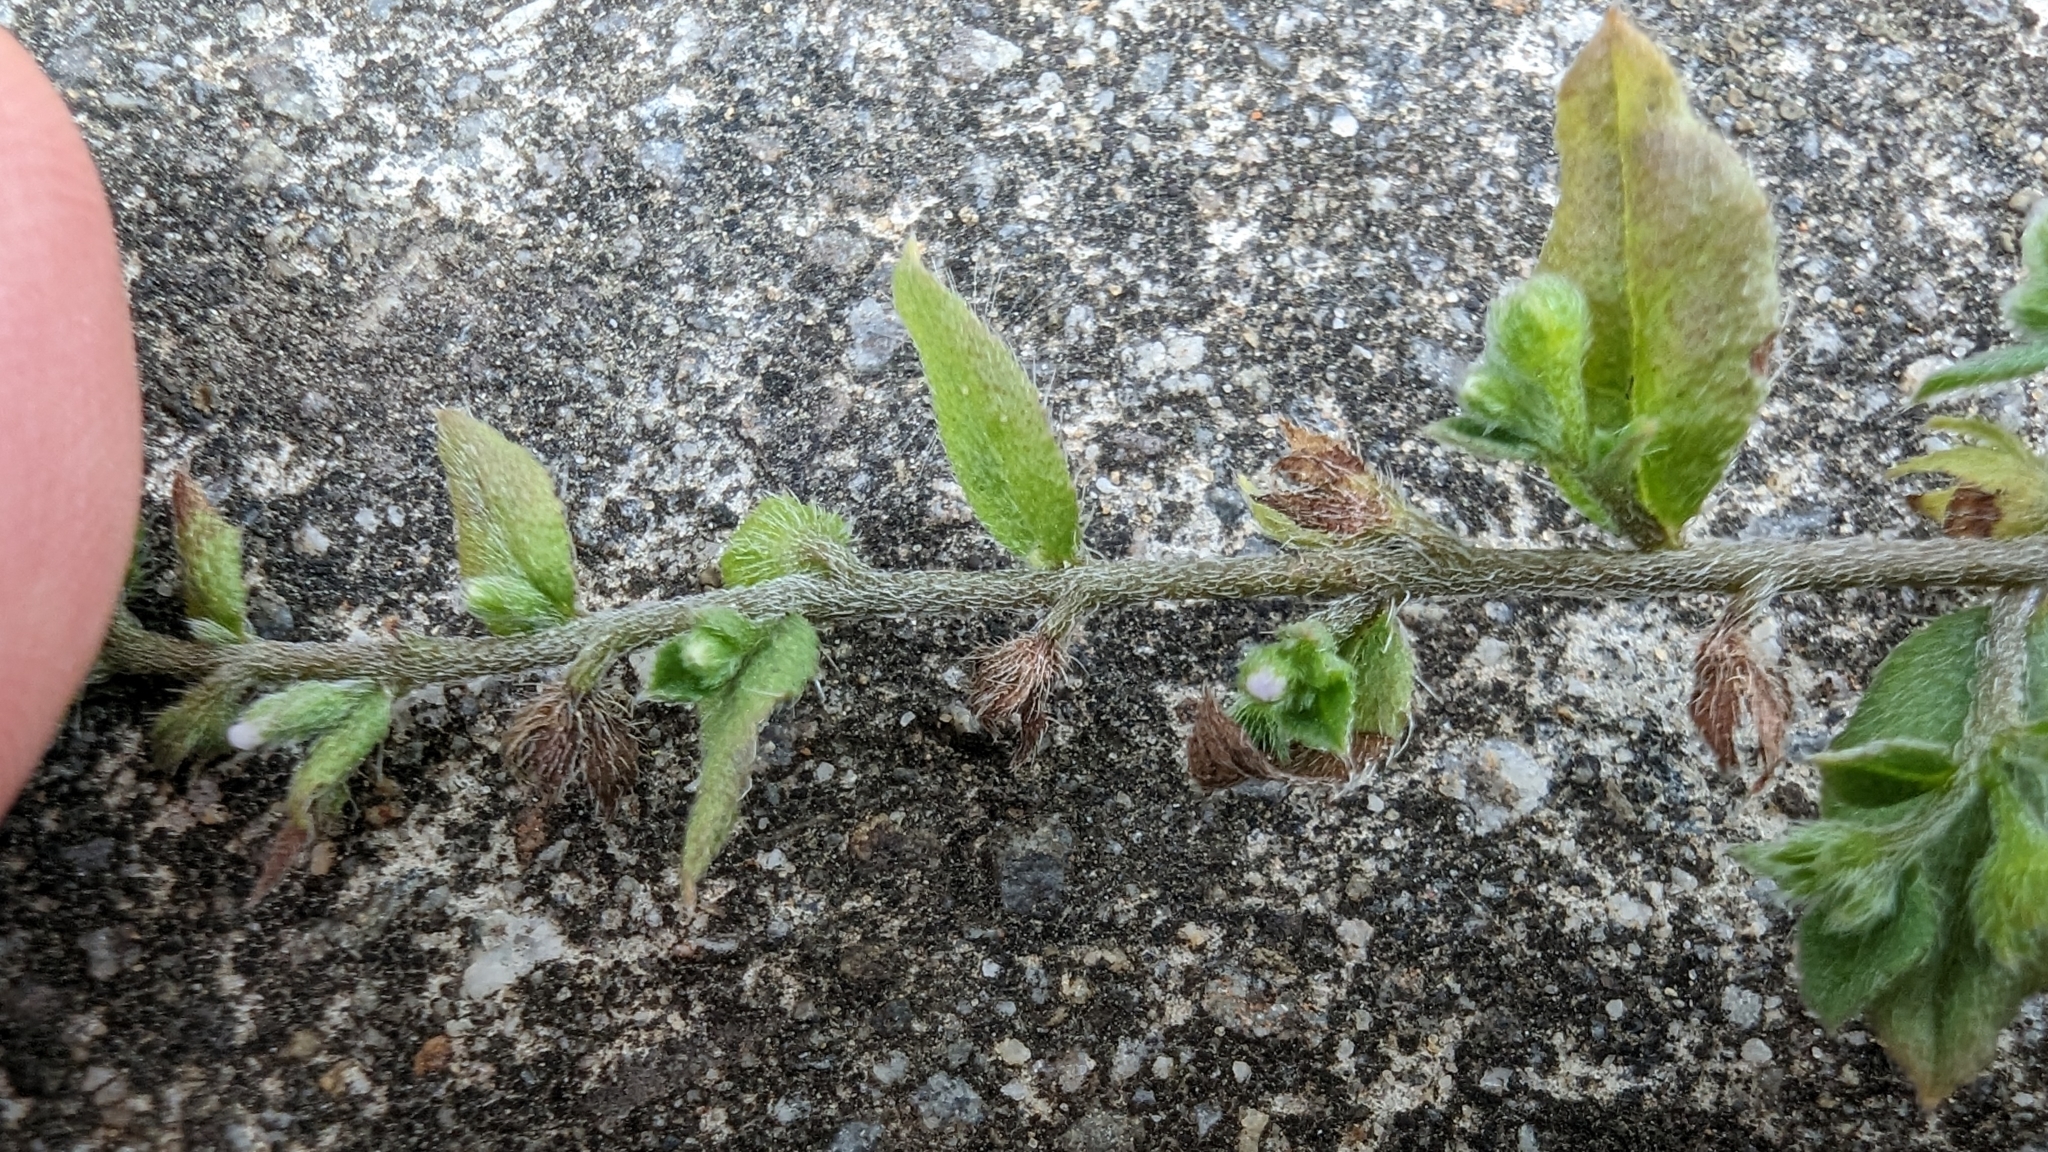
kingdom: Plantae
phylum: Tracheophyta
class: Magnoliopsida
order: Boraginales
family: Boraginaceae
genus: Bothriospermum
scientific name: Bothriospermum zeylanicum
